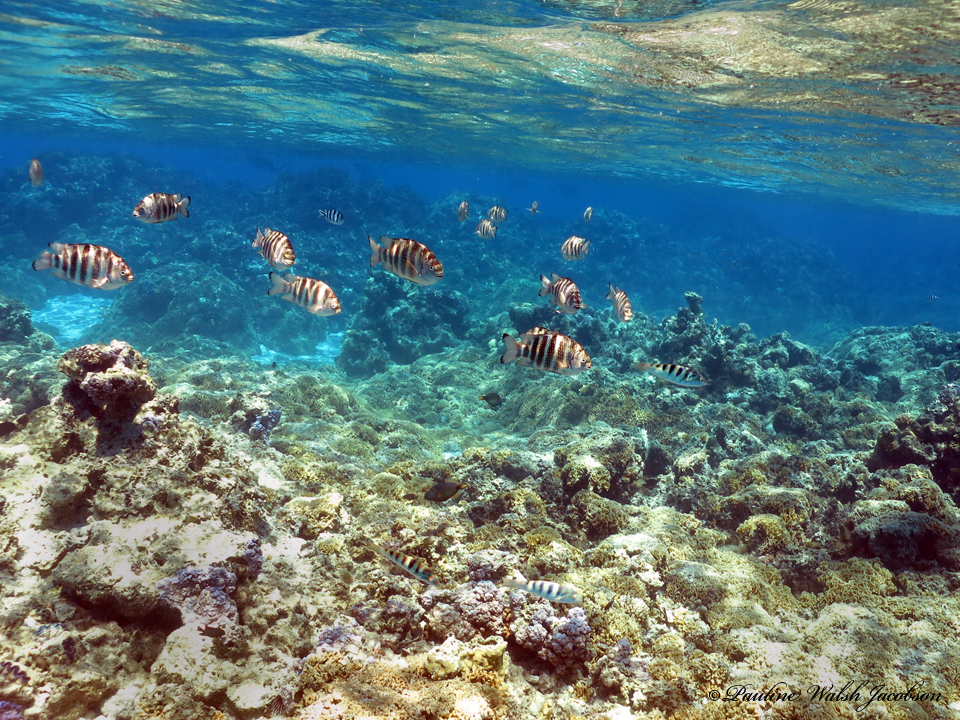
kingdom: Animalia
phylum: Chordata
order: Perciformes
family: Pomacentridae
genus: Abudefduf
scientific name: Abudefduf septemfasciatus
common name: Banded sergeant
